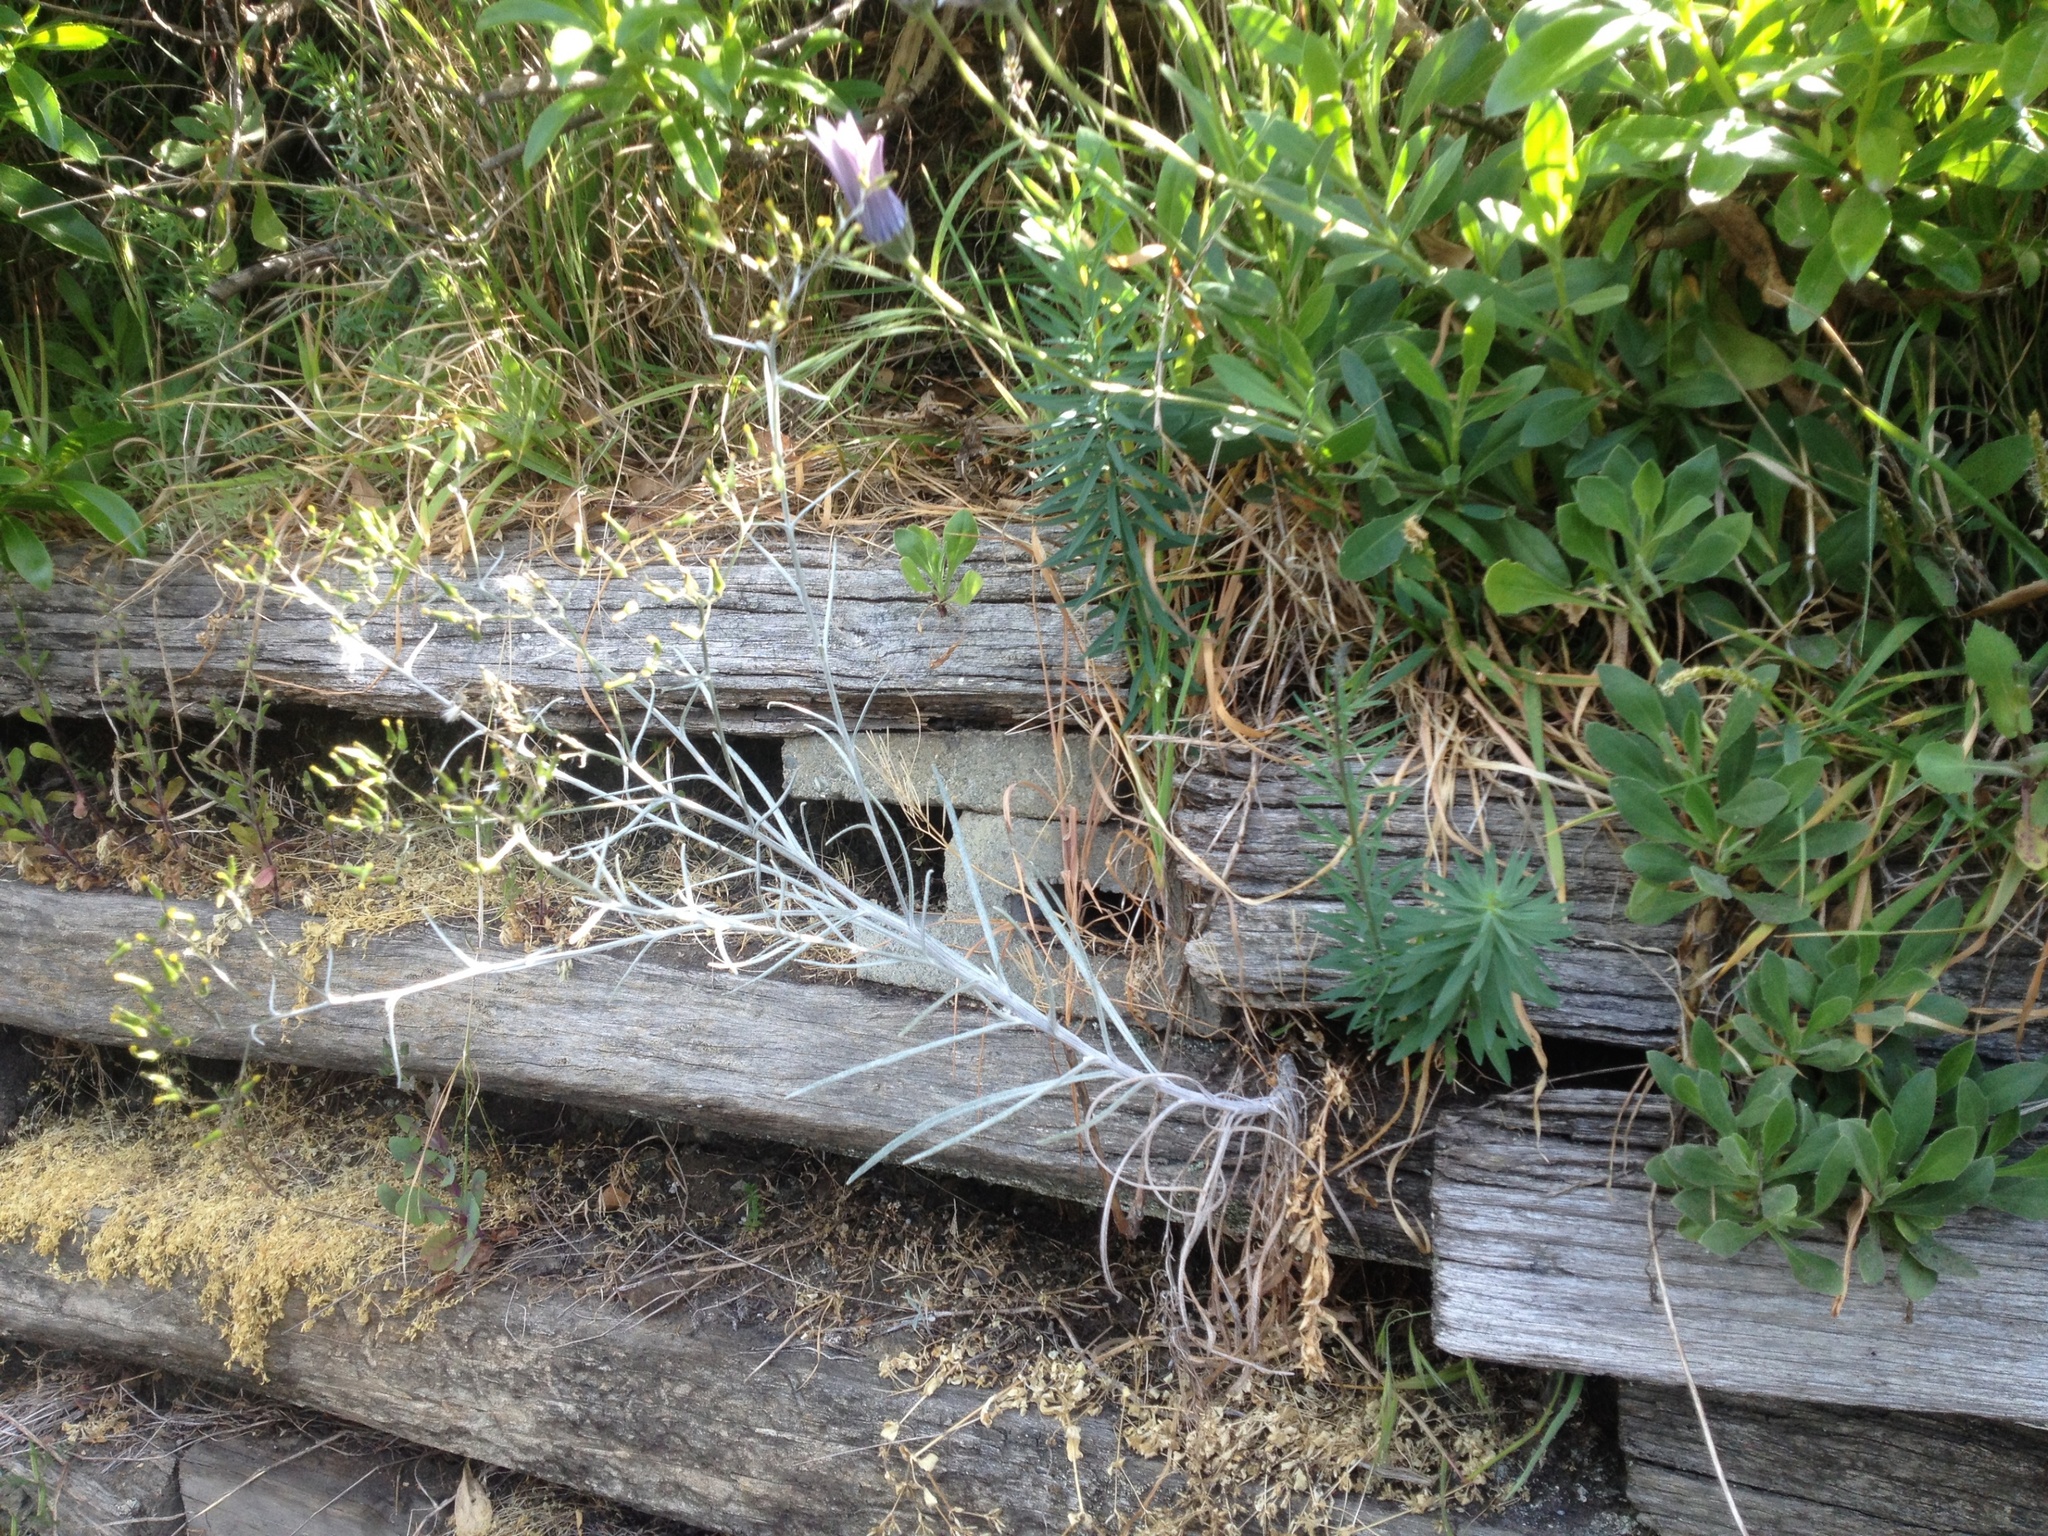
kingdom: Plantae
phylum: Tracheophyta
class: Magnoliopsida
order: Asterales
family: Asteraceae
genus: Senecio
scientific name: Senecio quadridentatus
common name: Cotton fireweed
